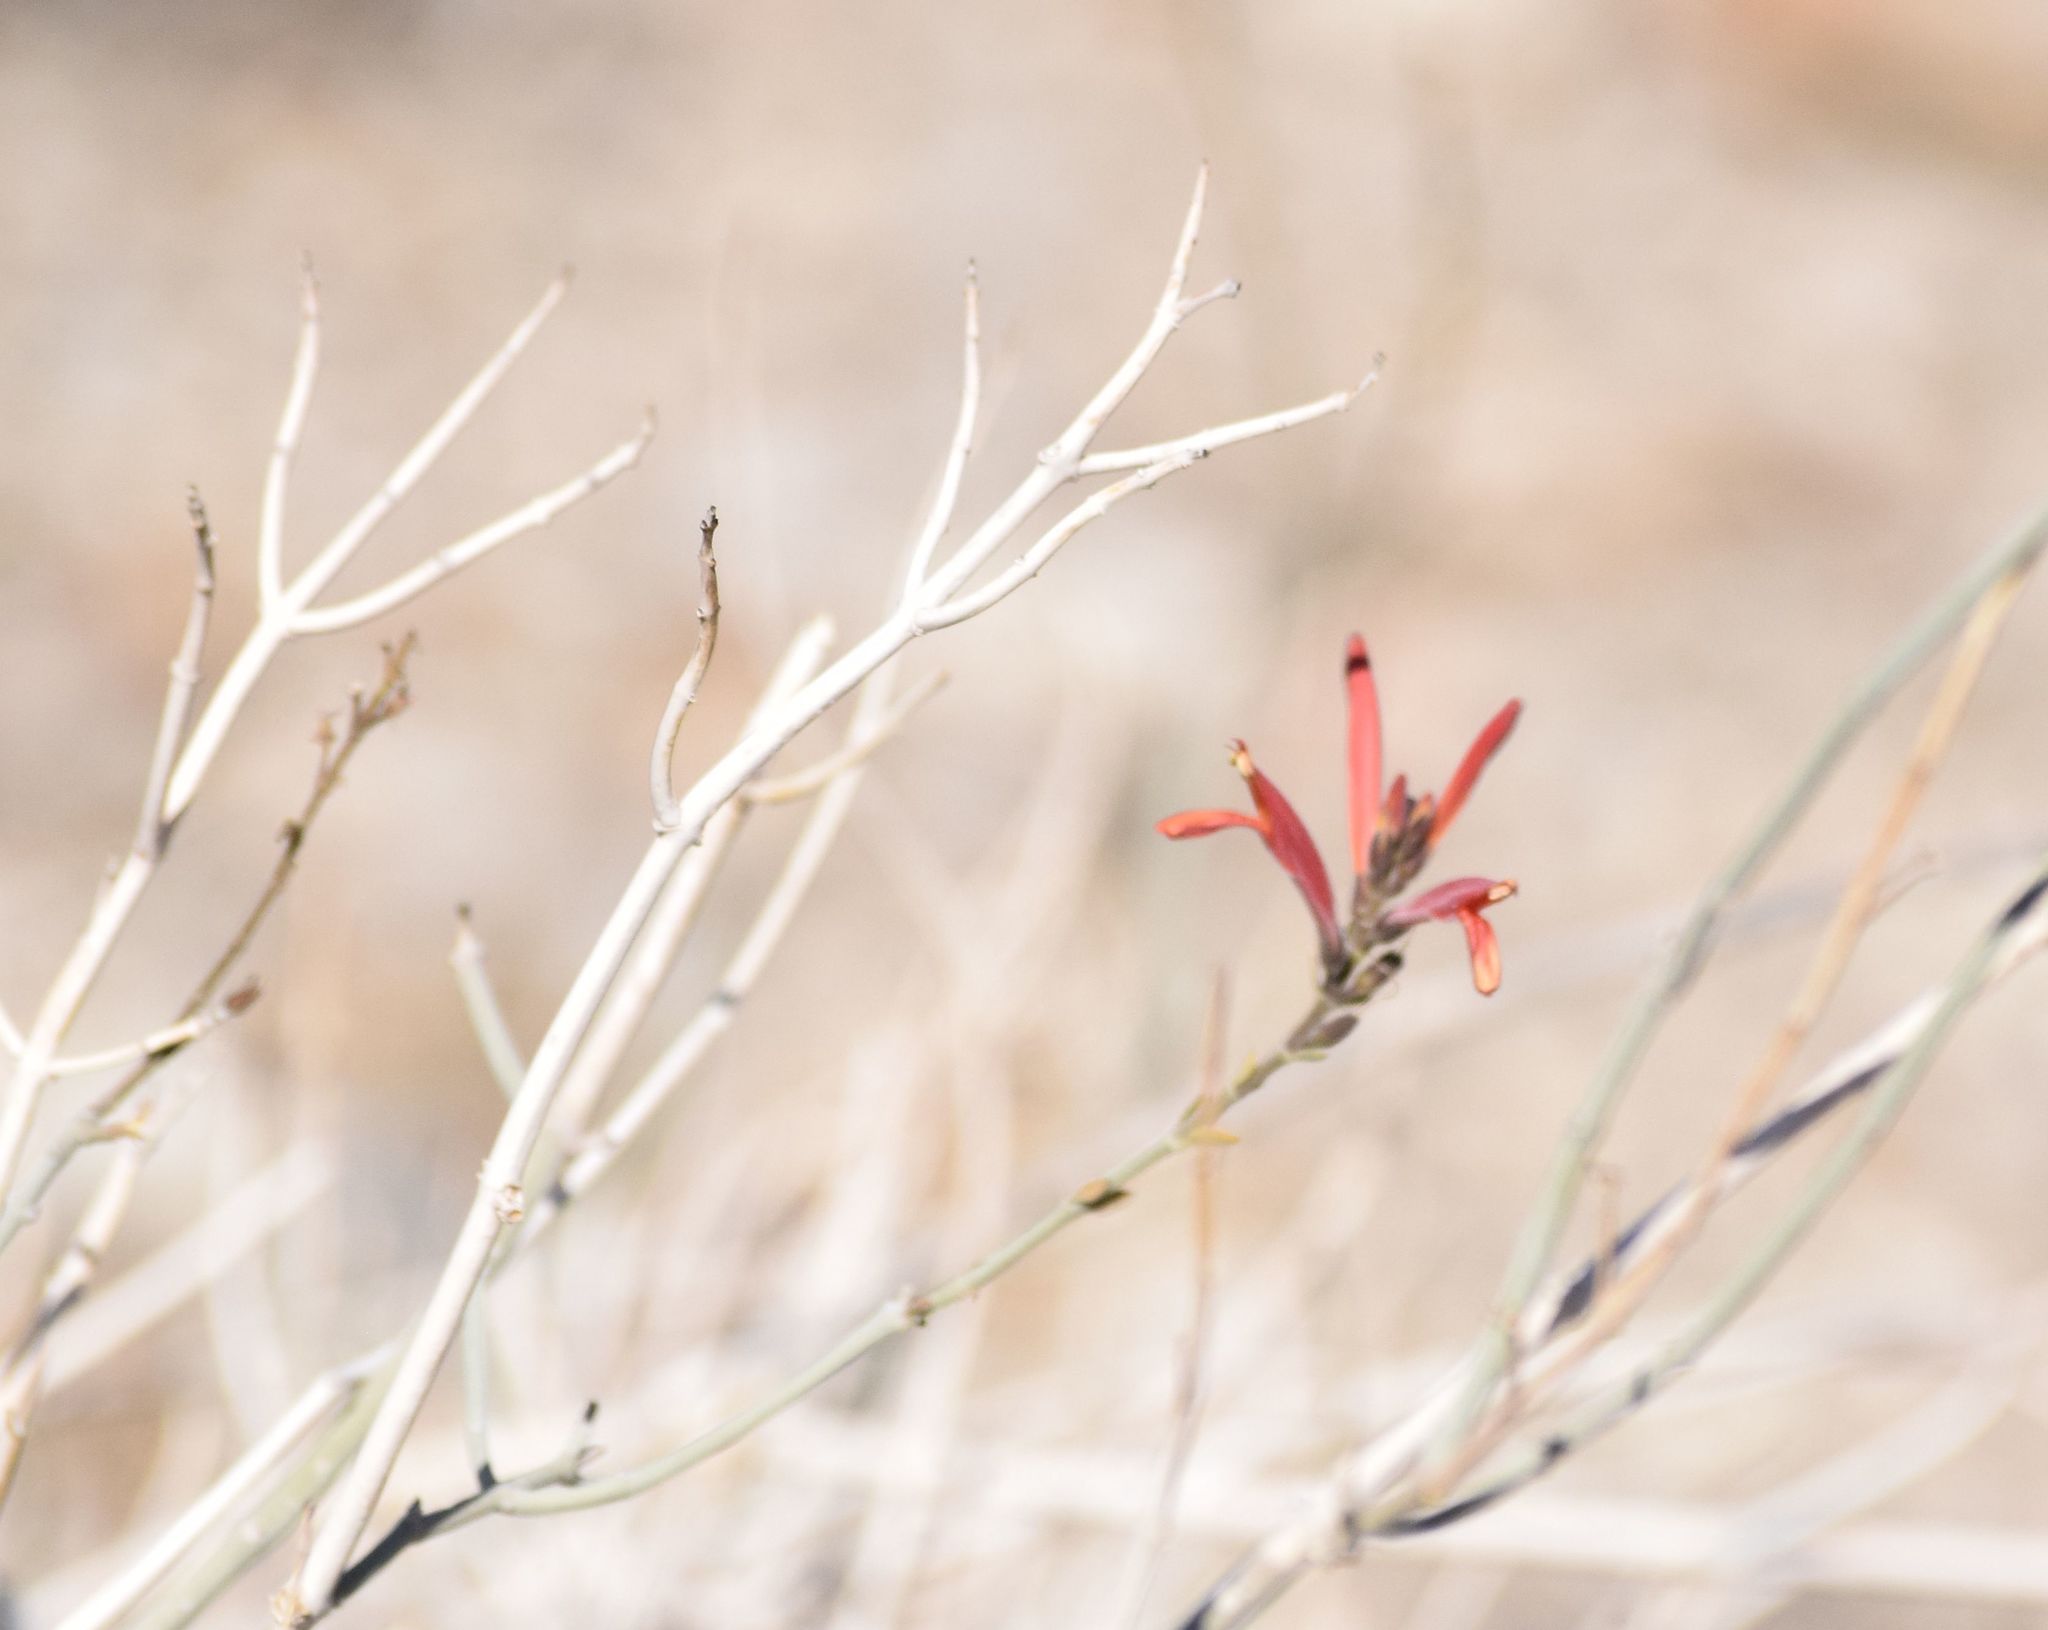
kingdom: Plantae
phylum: Tracheophyta
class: Magnoliopsida
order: Lamiales
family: Acanthaceae
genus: Justicia
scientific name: Justicia californica
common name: Chuparosa-honeysuckle
